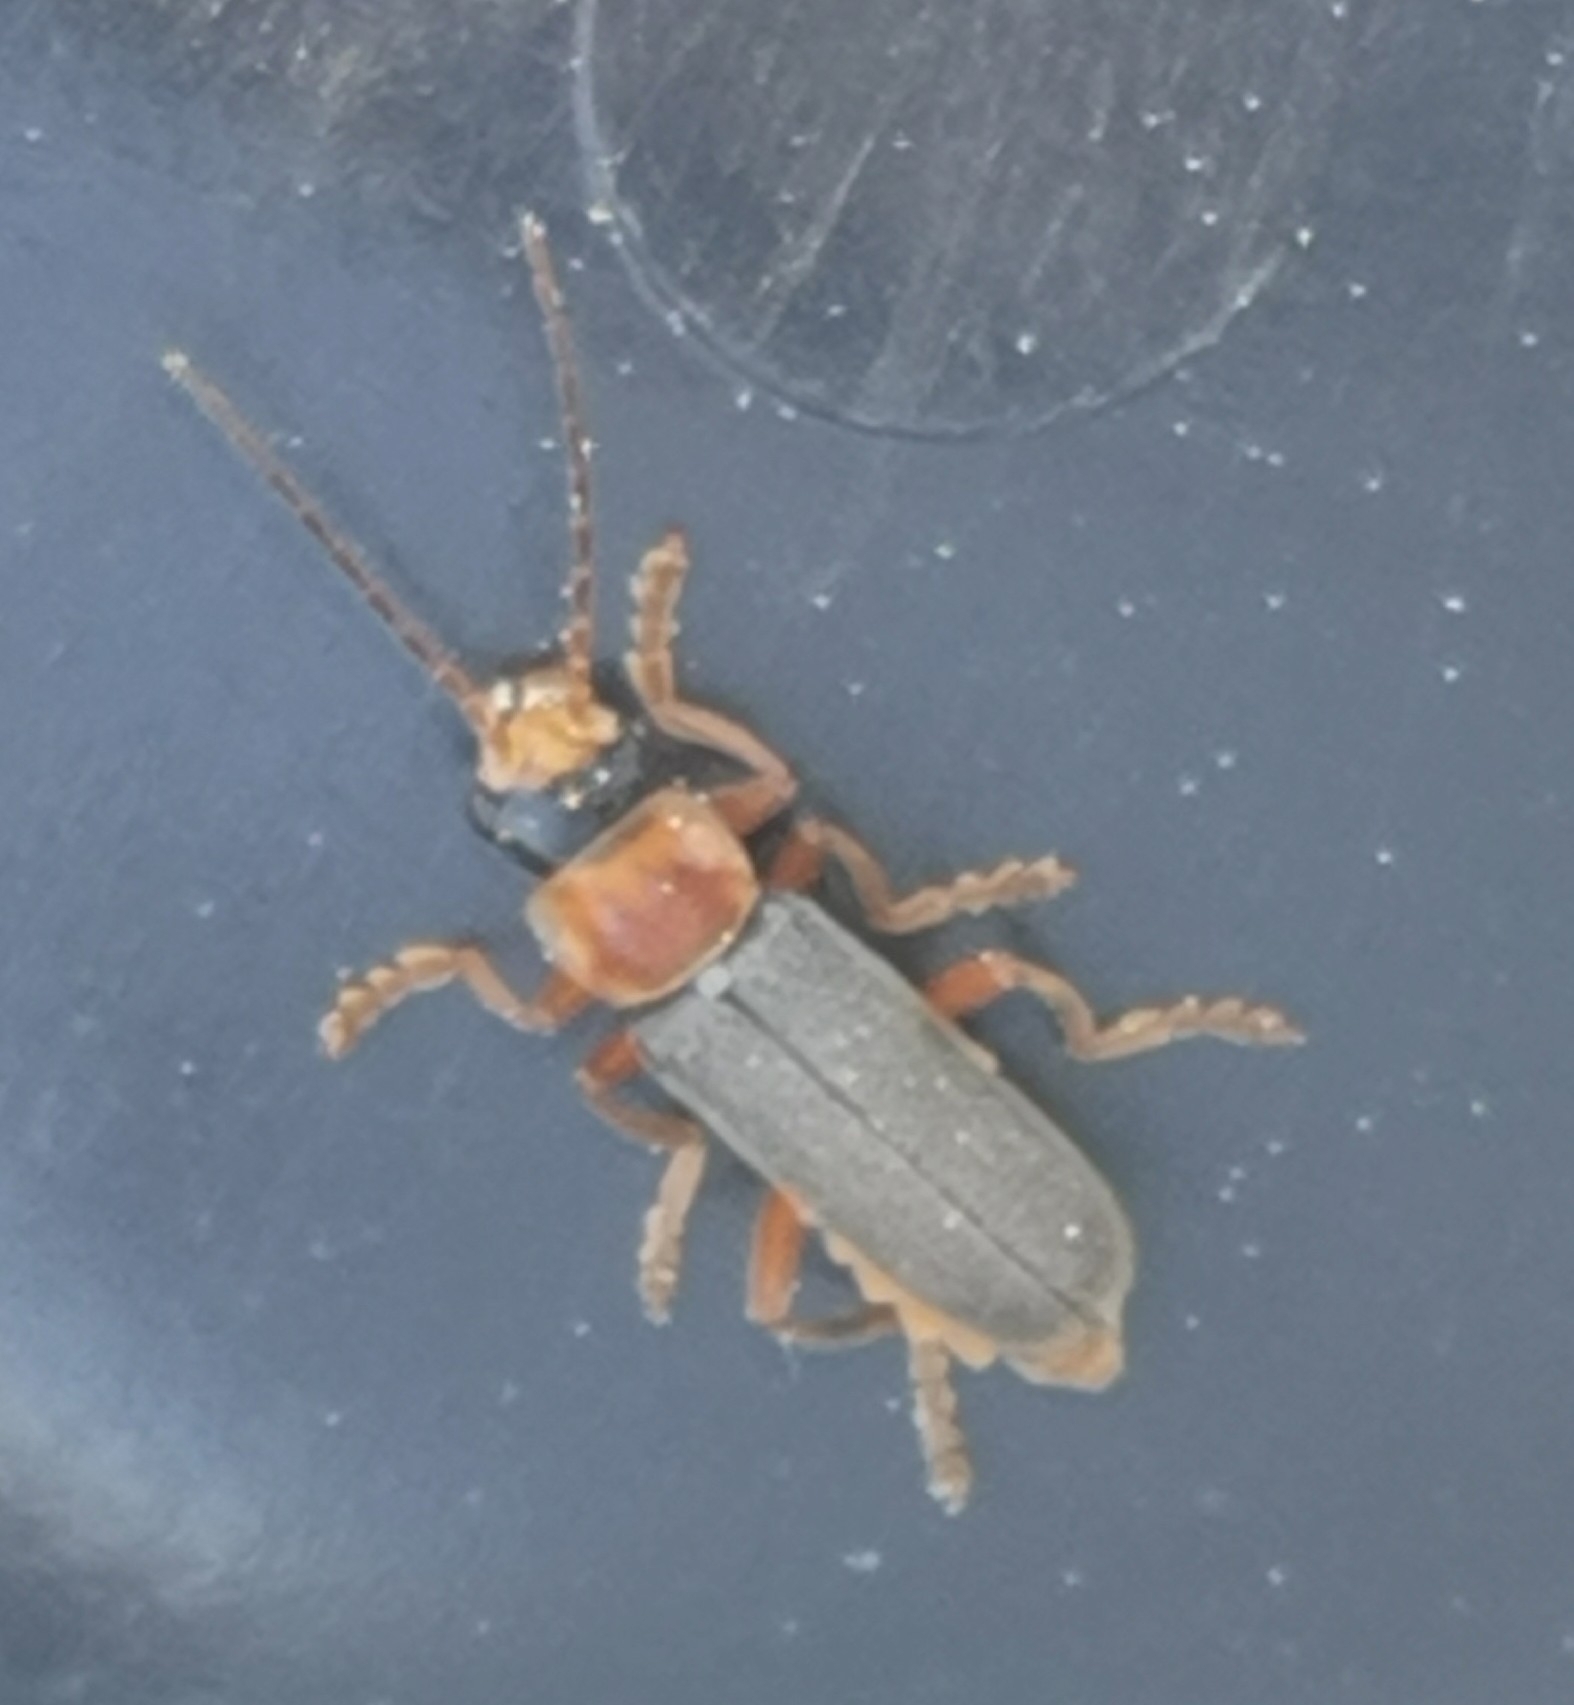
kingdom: Animalia
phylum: Arthropoda
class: Insecta
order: Coleoptera
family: Cantharidae
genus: Cantharis
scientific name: Cantharis lateralis
